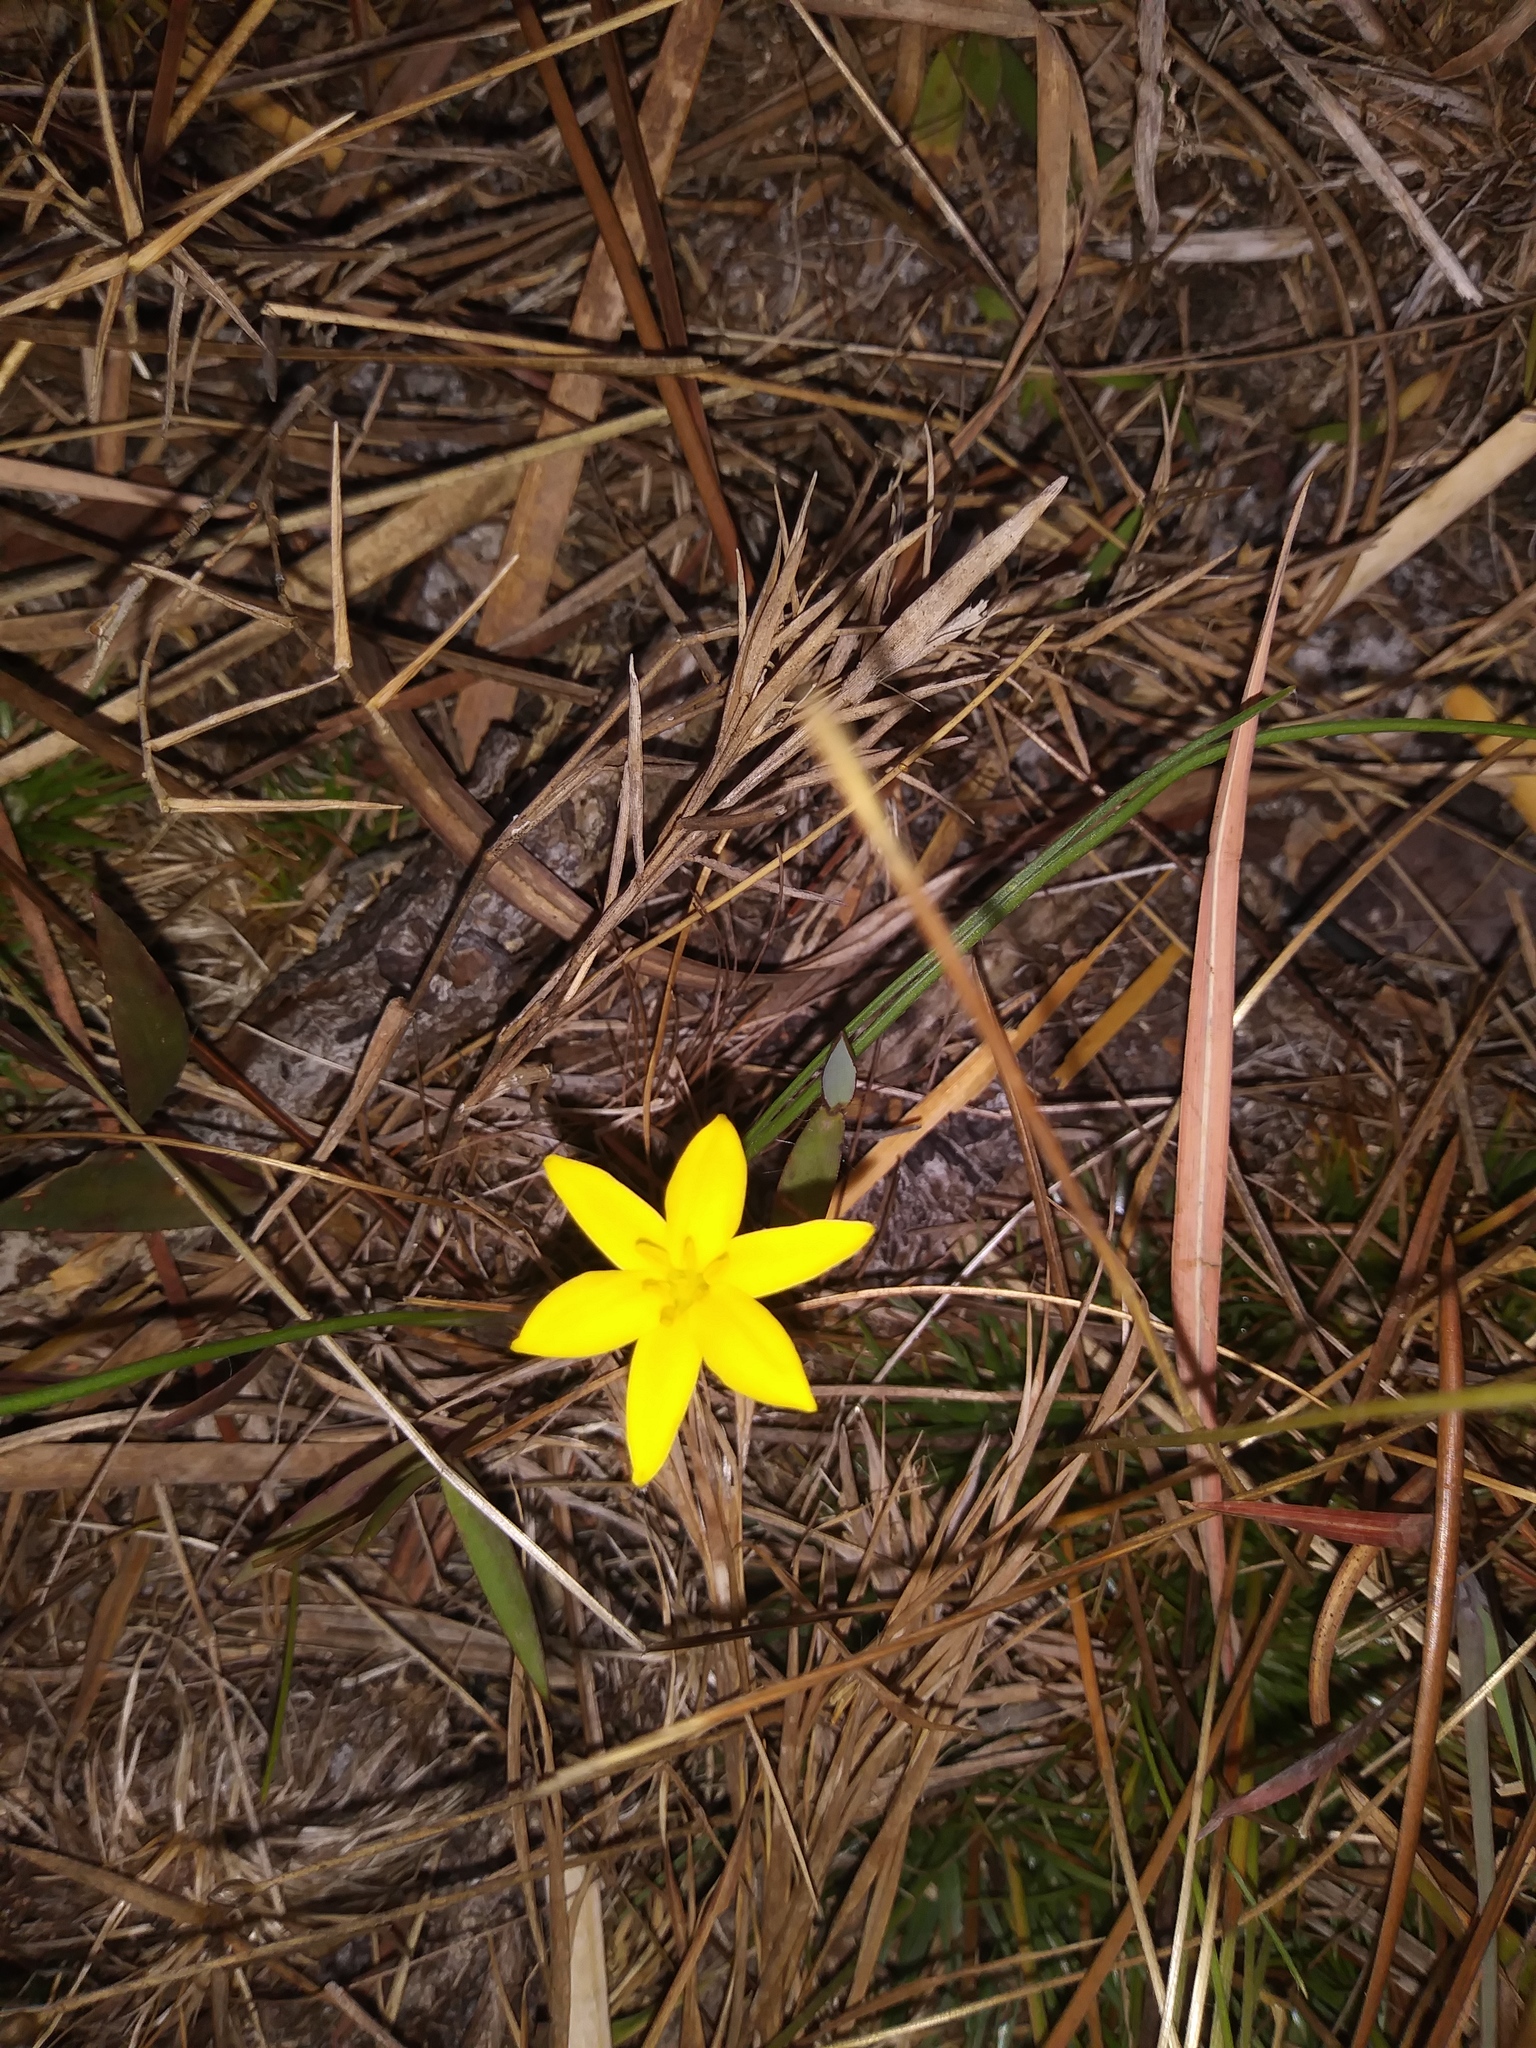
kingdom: Plantae
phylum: Tracheophyta
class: Liliopsida
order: Asparagales
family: Hypoxidaceae
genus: Hypoxis
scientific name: Hypoxis juncea
